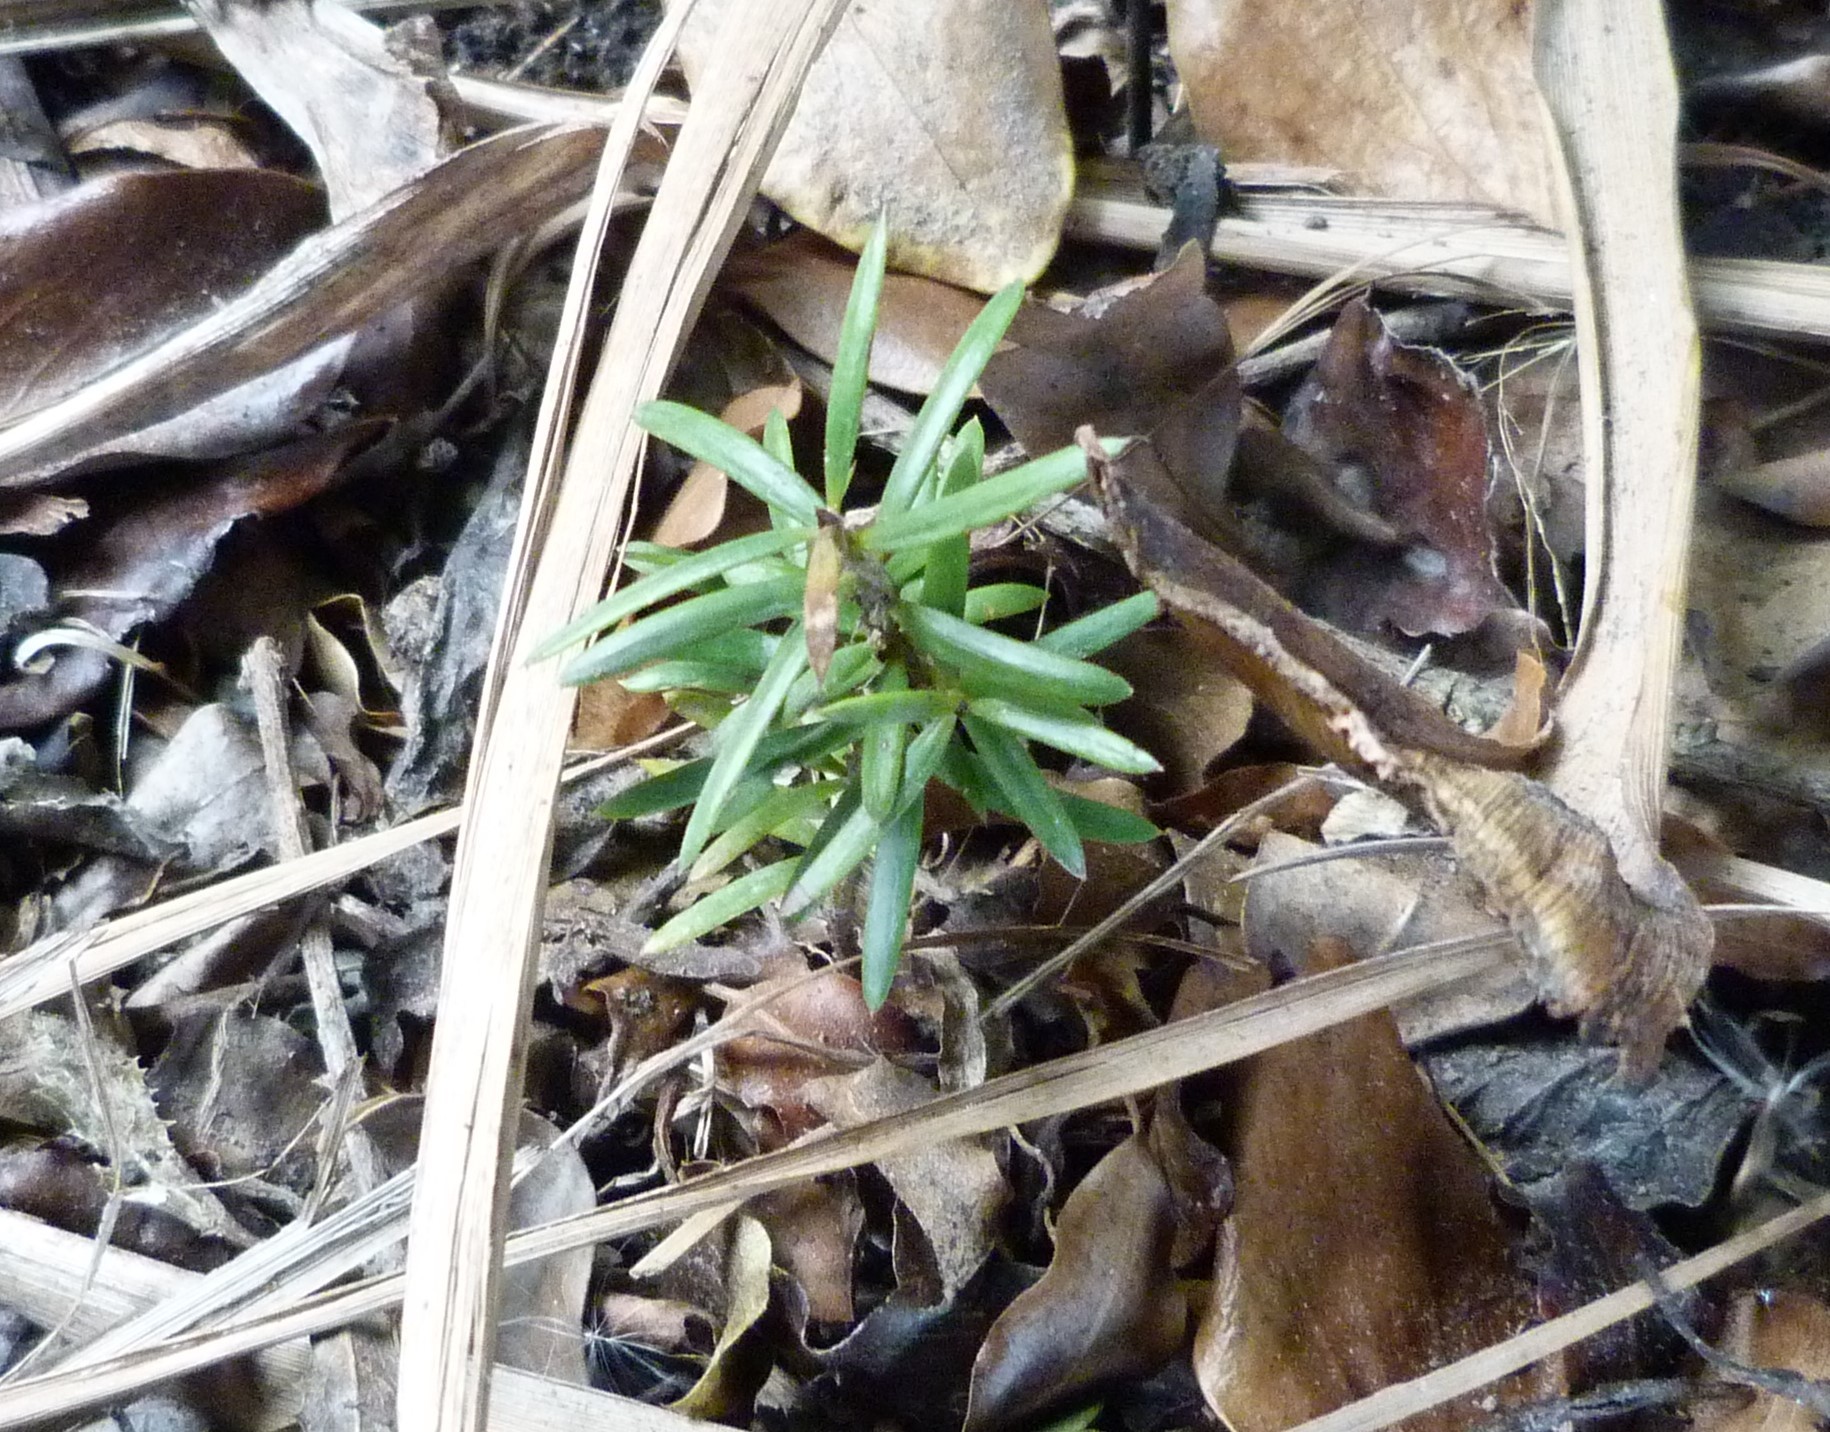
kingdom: Plantae
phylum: Tracheophyta
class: Pinopsida
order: Pinales
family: Podocarpaceae
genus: Podocarpus
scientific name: Podocarpus totara
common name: Totara
